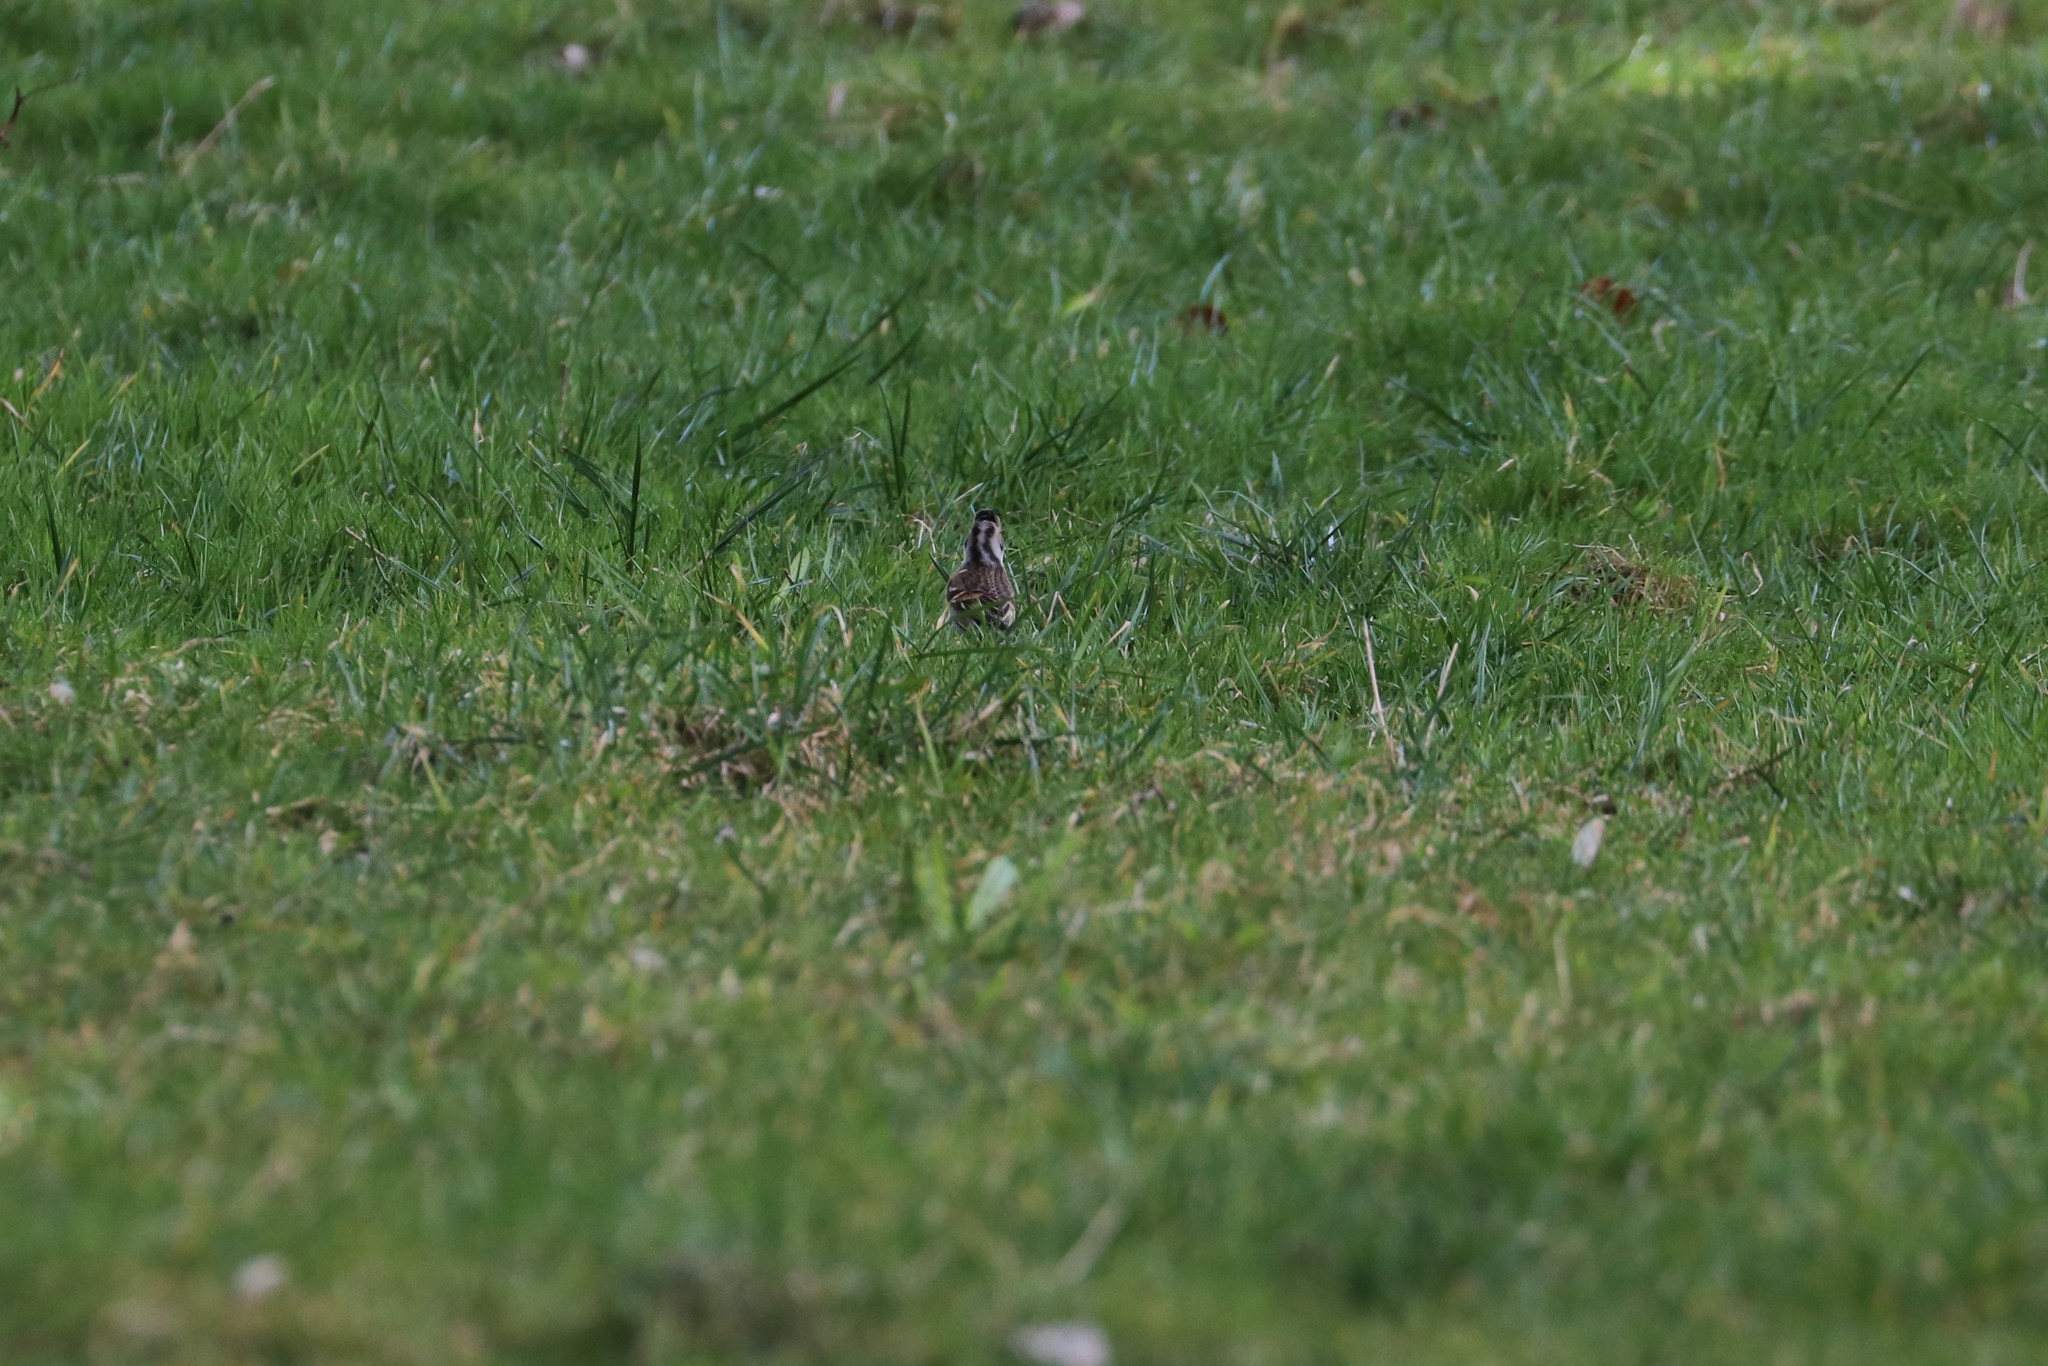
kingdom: Animalia
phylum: Chordata
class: Aves
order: Passeriformes
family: Fringillidae
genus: Fringilla
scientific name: Fringilla montifringilla
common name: Brambling
